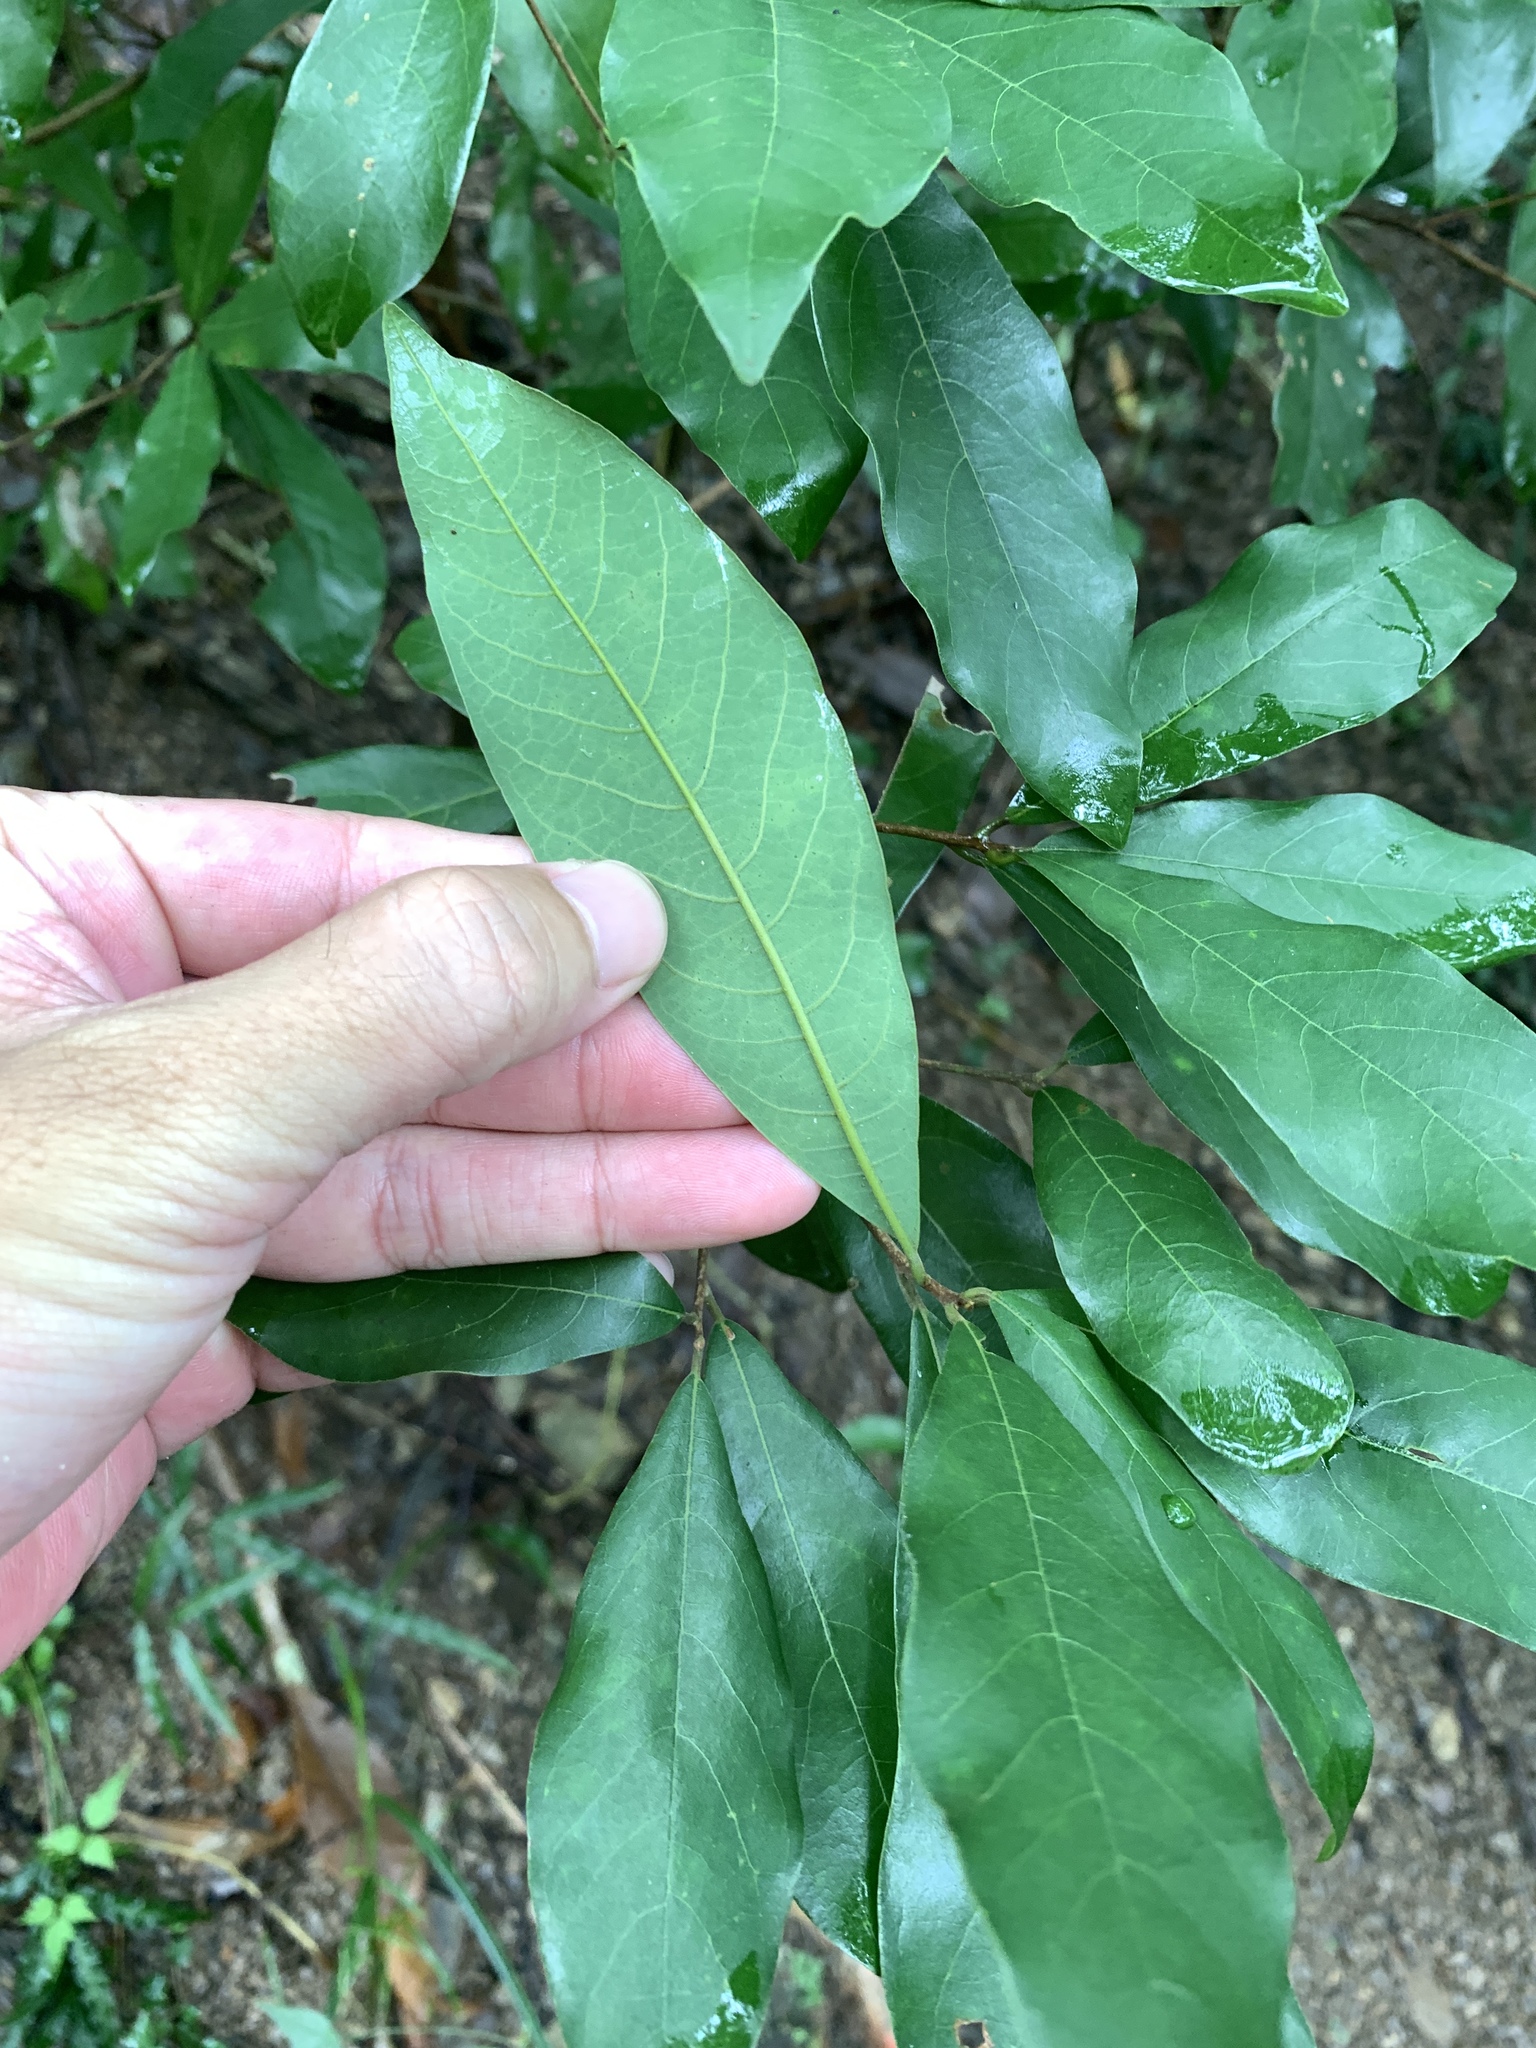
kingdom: Plantae
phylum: Tracheophyta
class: Magnoliopsida
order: Laurales
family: Lauraceae
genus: Litsea
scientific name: Litsea hypophaea
